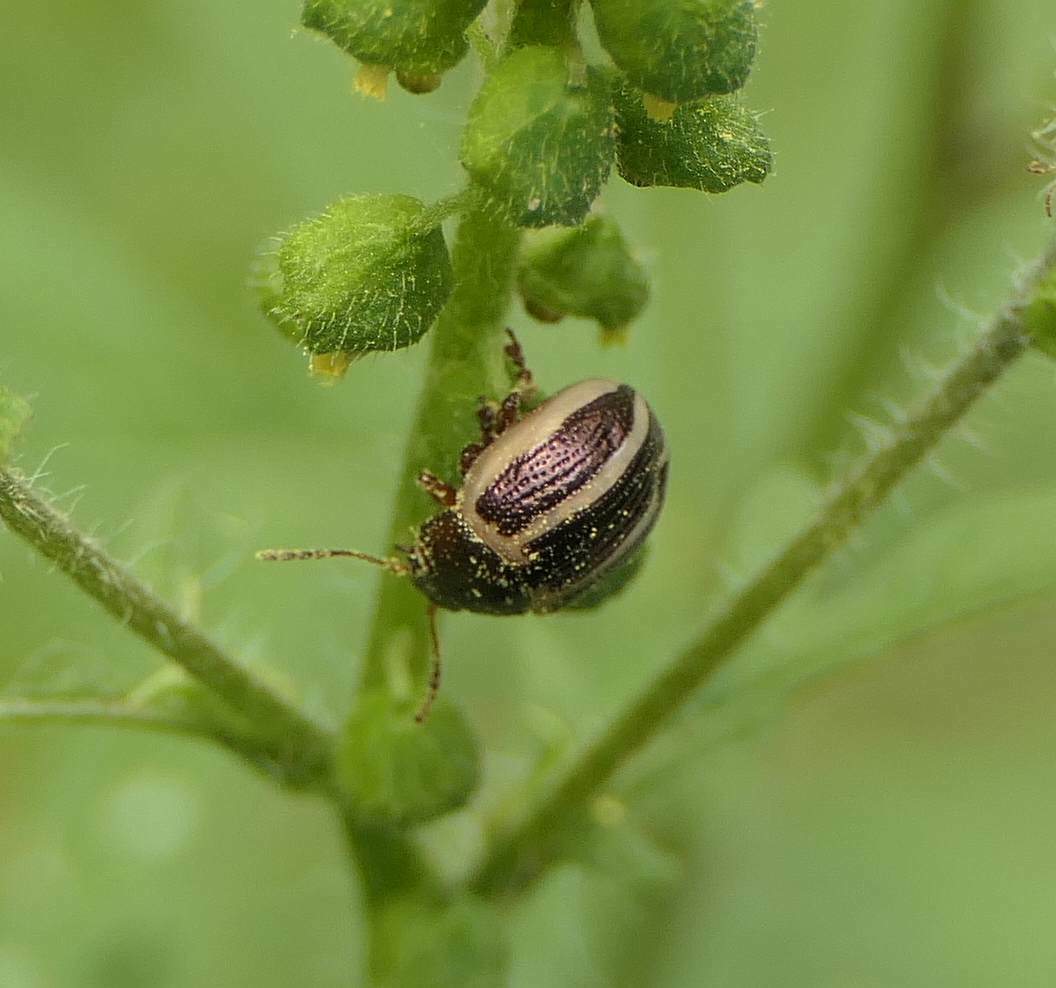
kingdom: Animalia
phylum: Arthropoda
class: Insecta
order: Coleoptera
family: Chrysomelidae
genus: Calligrapha
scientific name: Calligrapha
